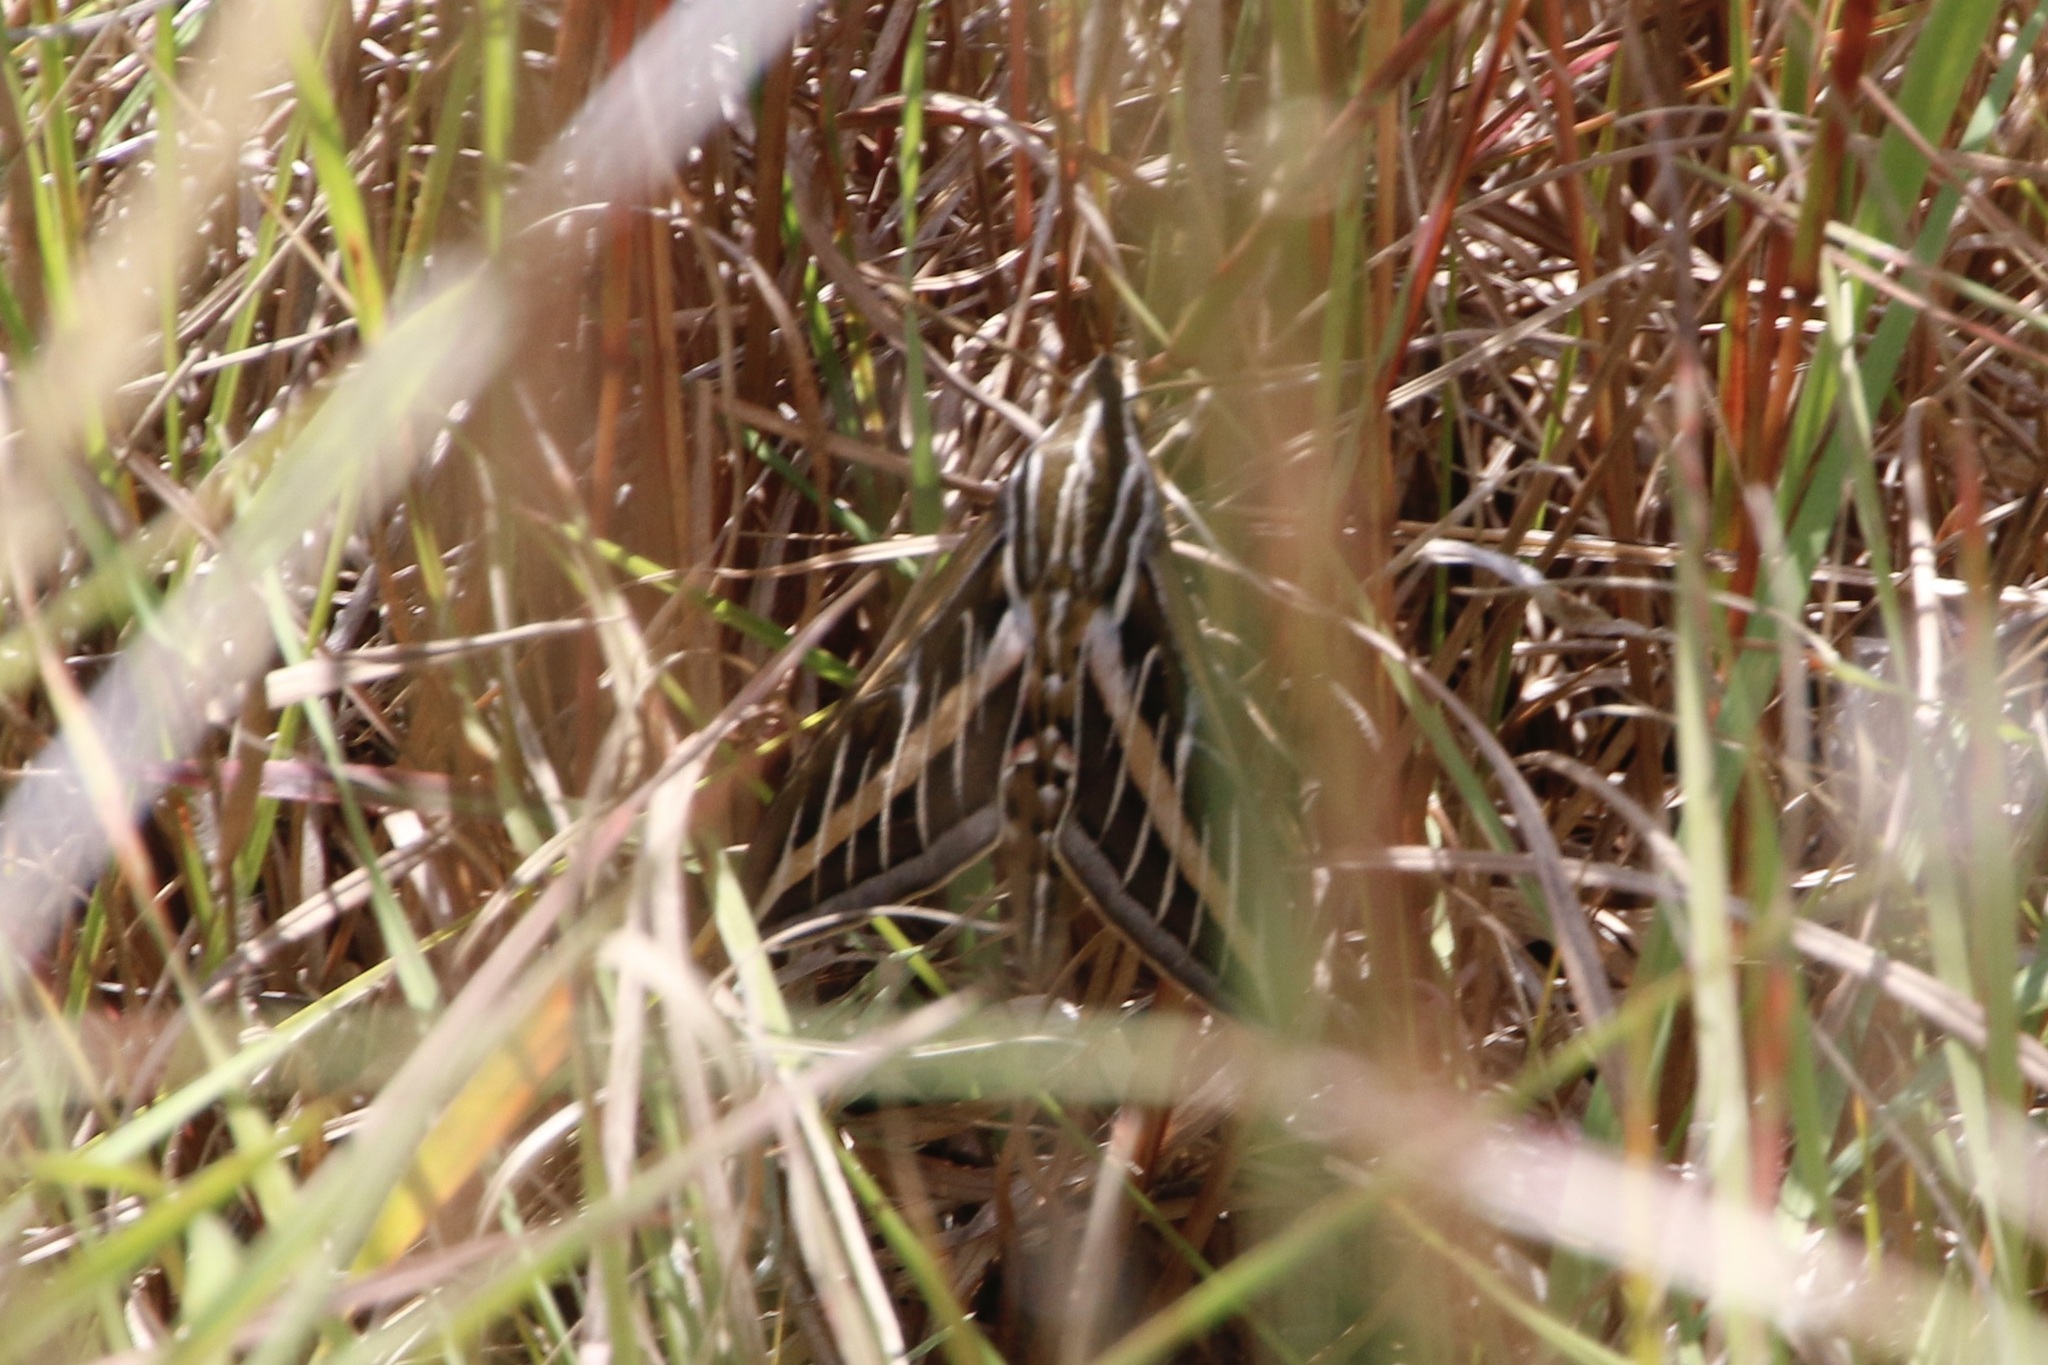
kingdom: Animalia
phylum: Arthropoda
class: Insecta
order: Lepidoptera
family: Sphingidae
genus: Hyles
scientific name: Hyles lineata
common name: White-lined sphinx
